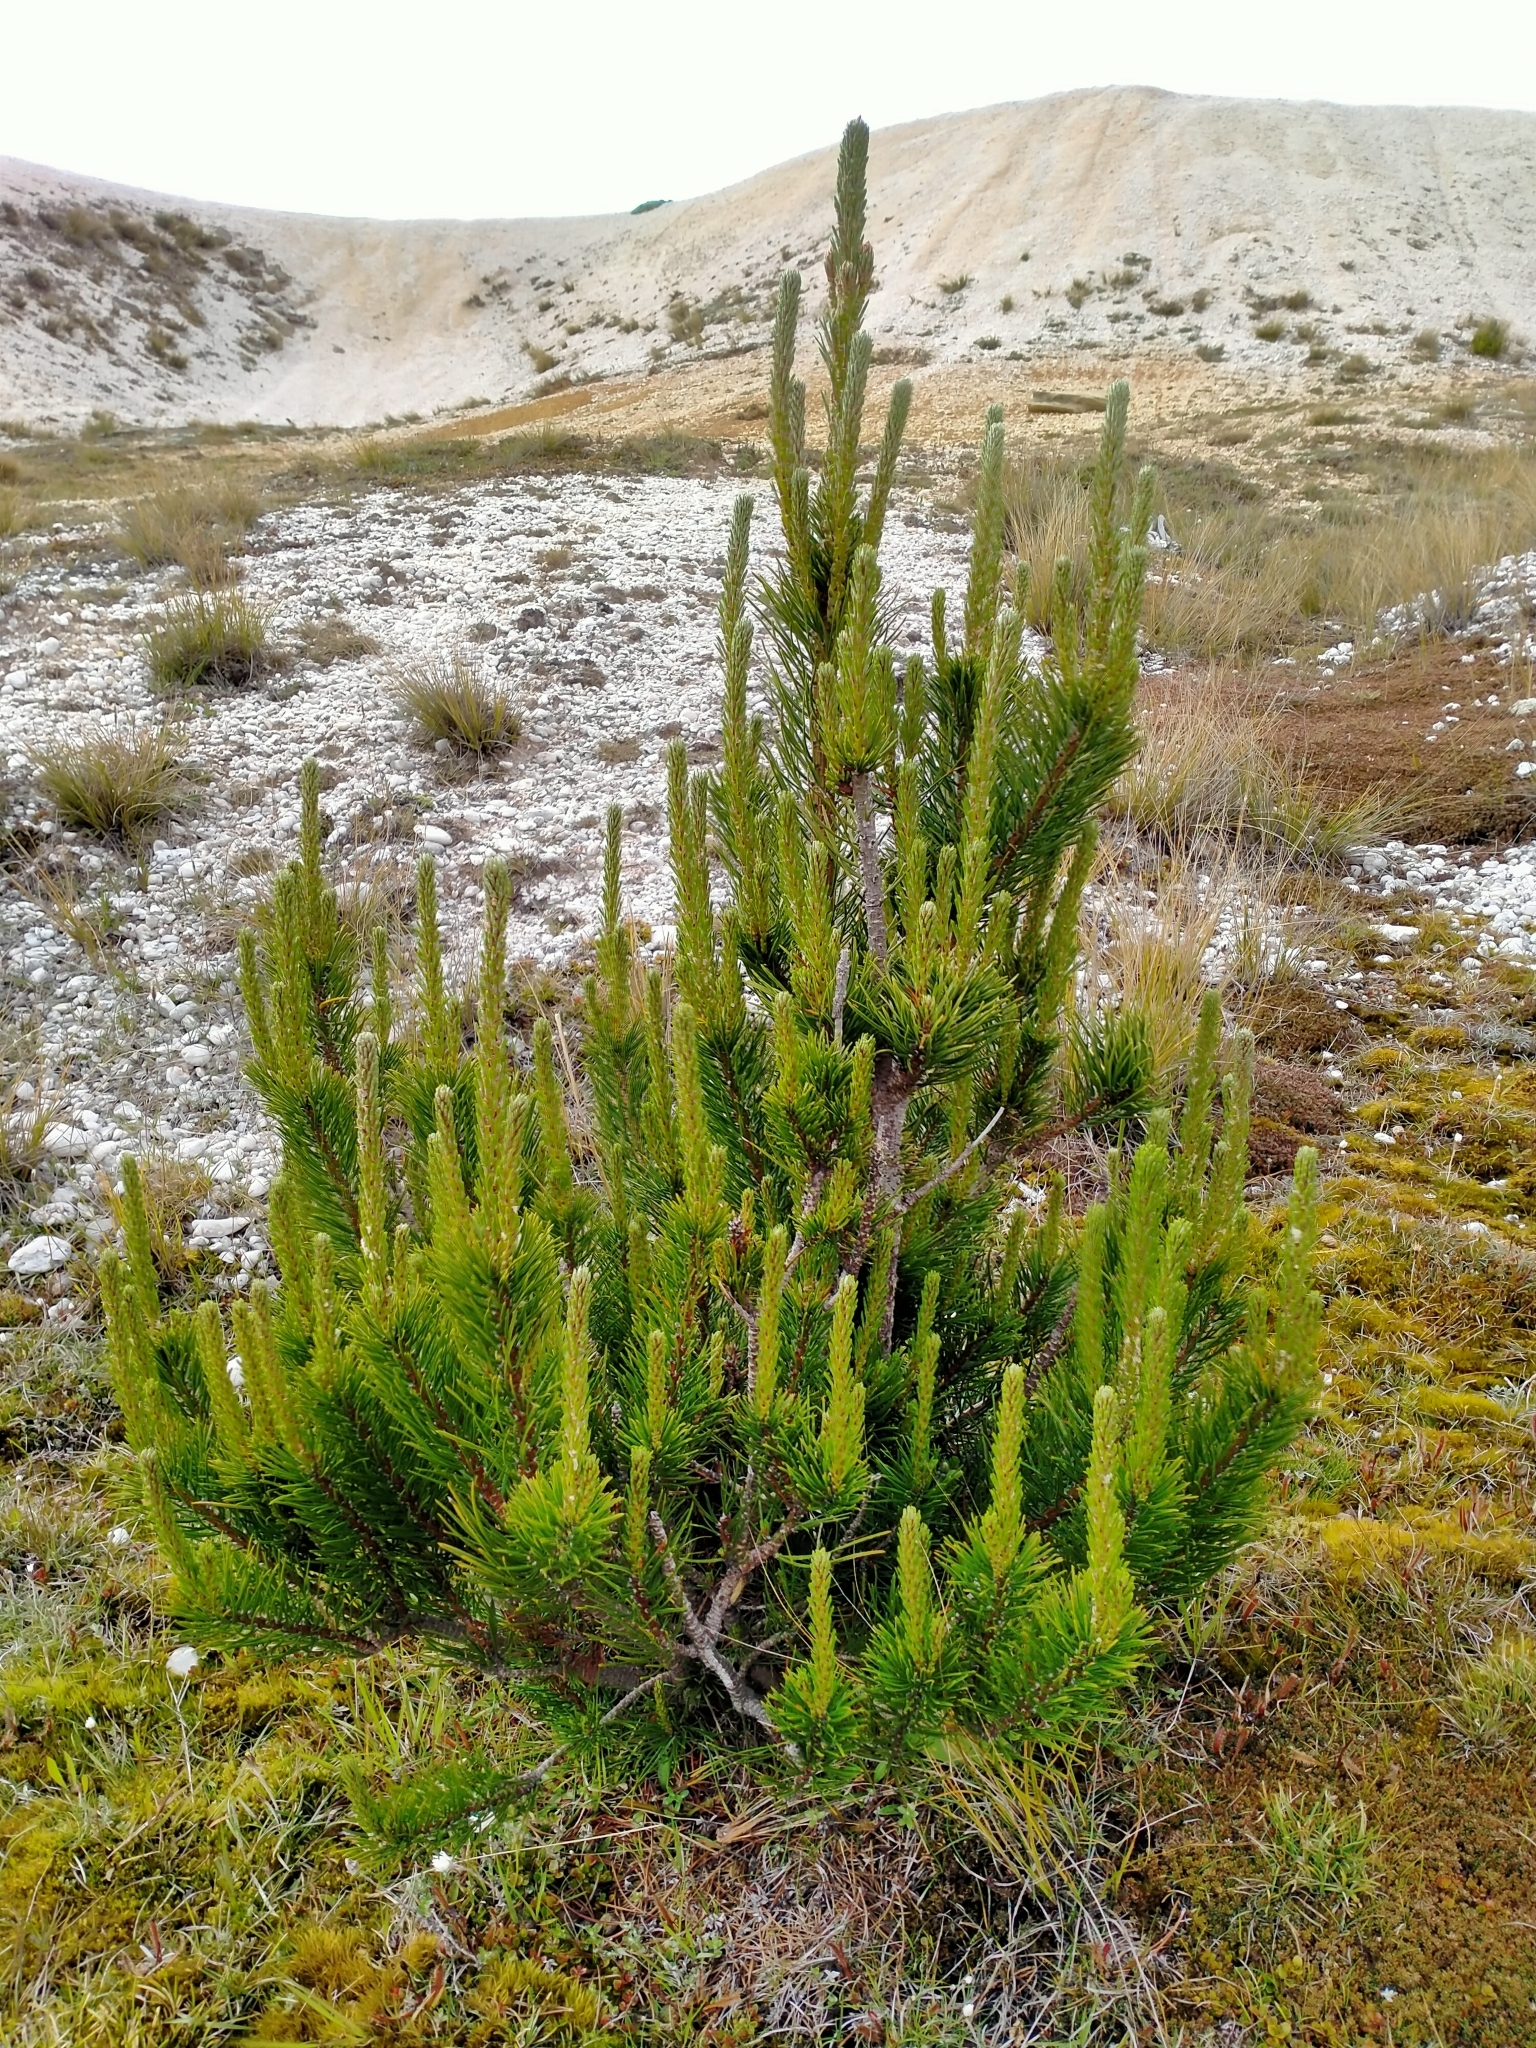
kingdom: Plantae
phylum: Tracheophyta
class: Pinopsida
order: Pinales
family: Pinaceae
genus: Pinus
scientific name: Pinus contorta
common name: Lodgepole pine
